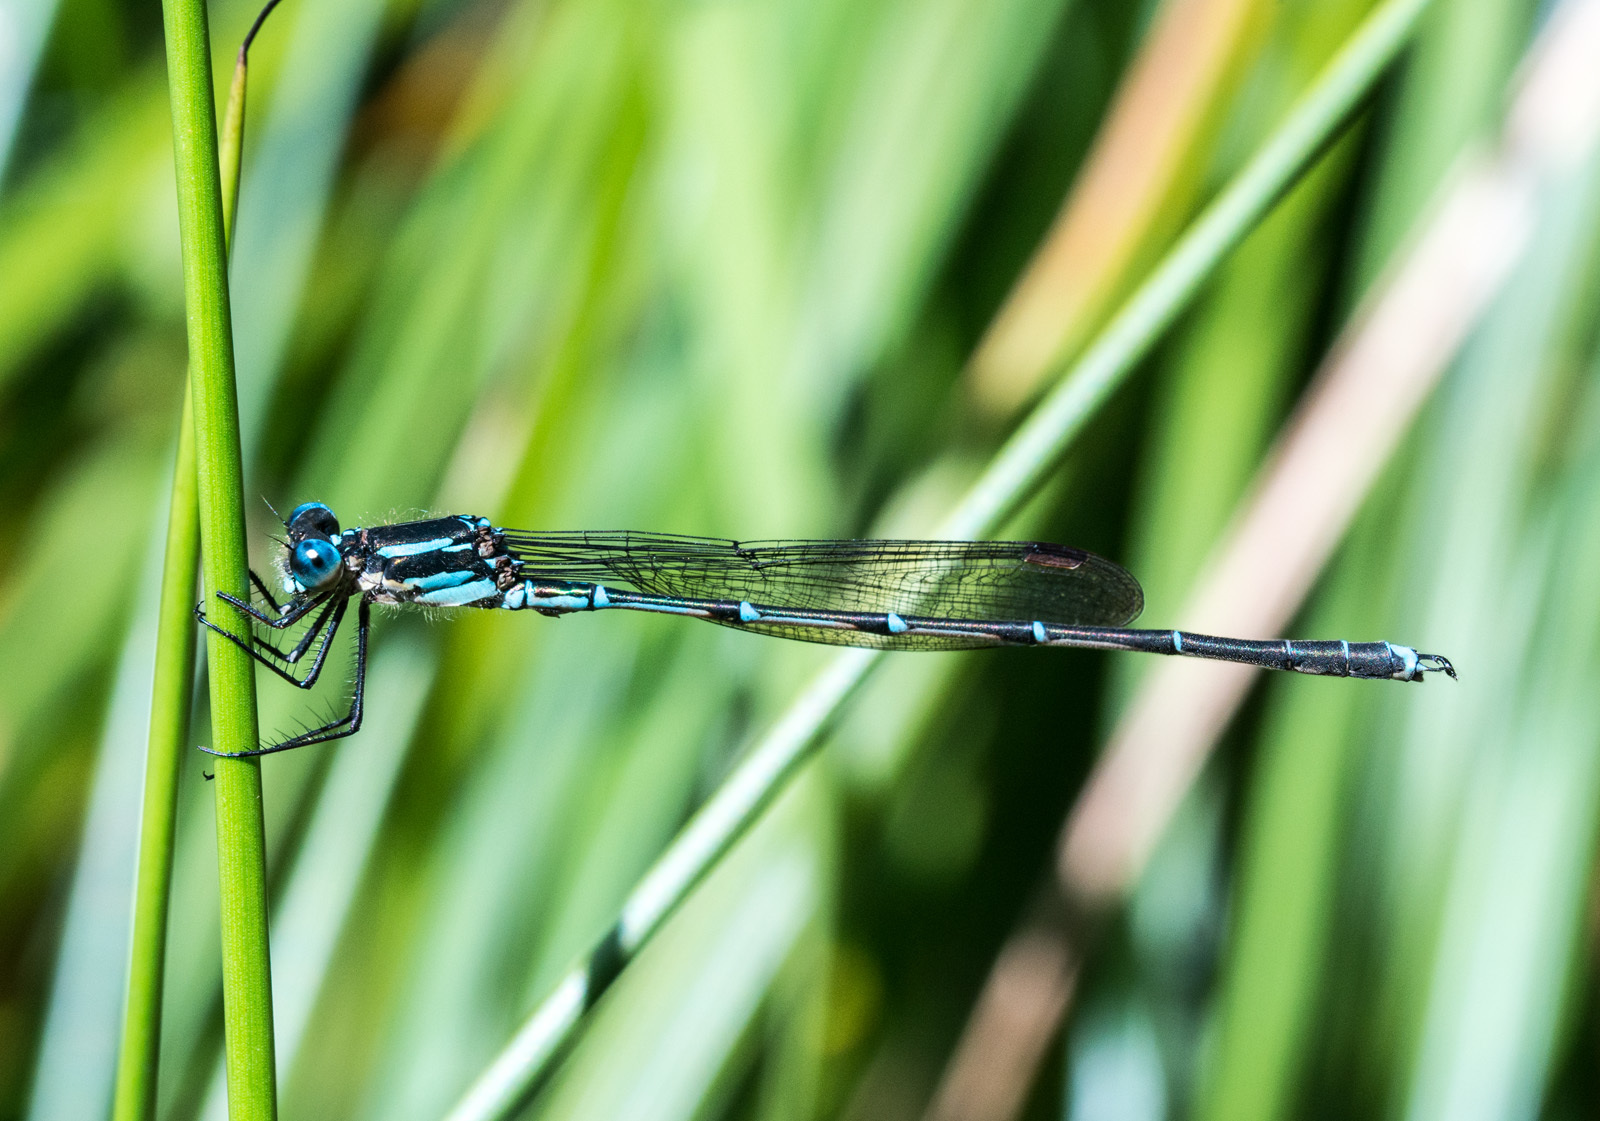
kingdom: Animalia
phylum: Arthropoda
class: Insecta
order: Odonata
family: Lestidae
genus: Austrolestes
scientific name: Austrolestes colensonis
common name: Blue damselfly
